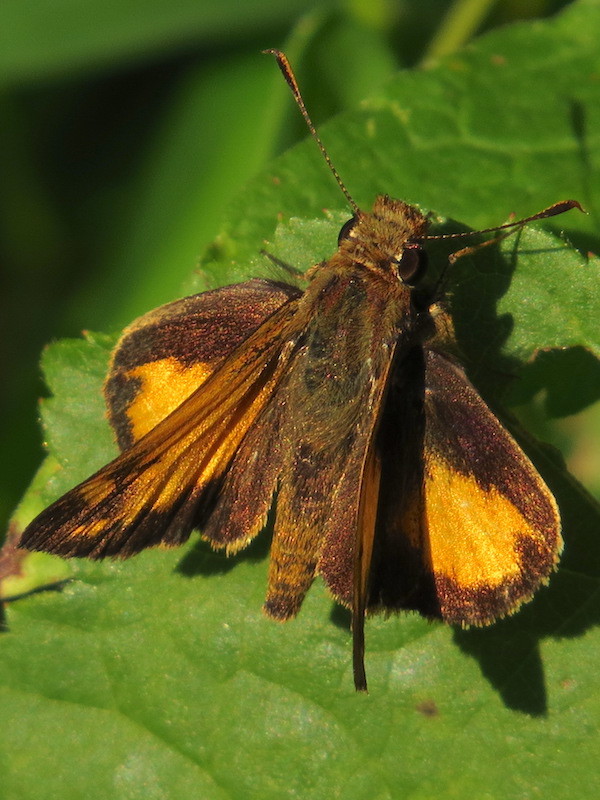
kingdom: Animalia
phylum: Arthropoda
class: Insecta
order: Lepidoptera
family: Hesperiidae
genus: Lon
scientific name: Lon zabulon
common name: Zabulon skipper
